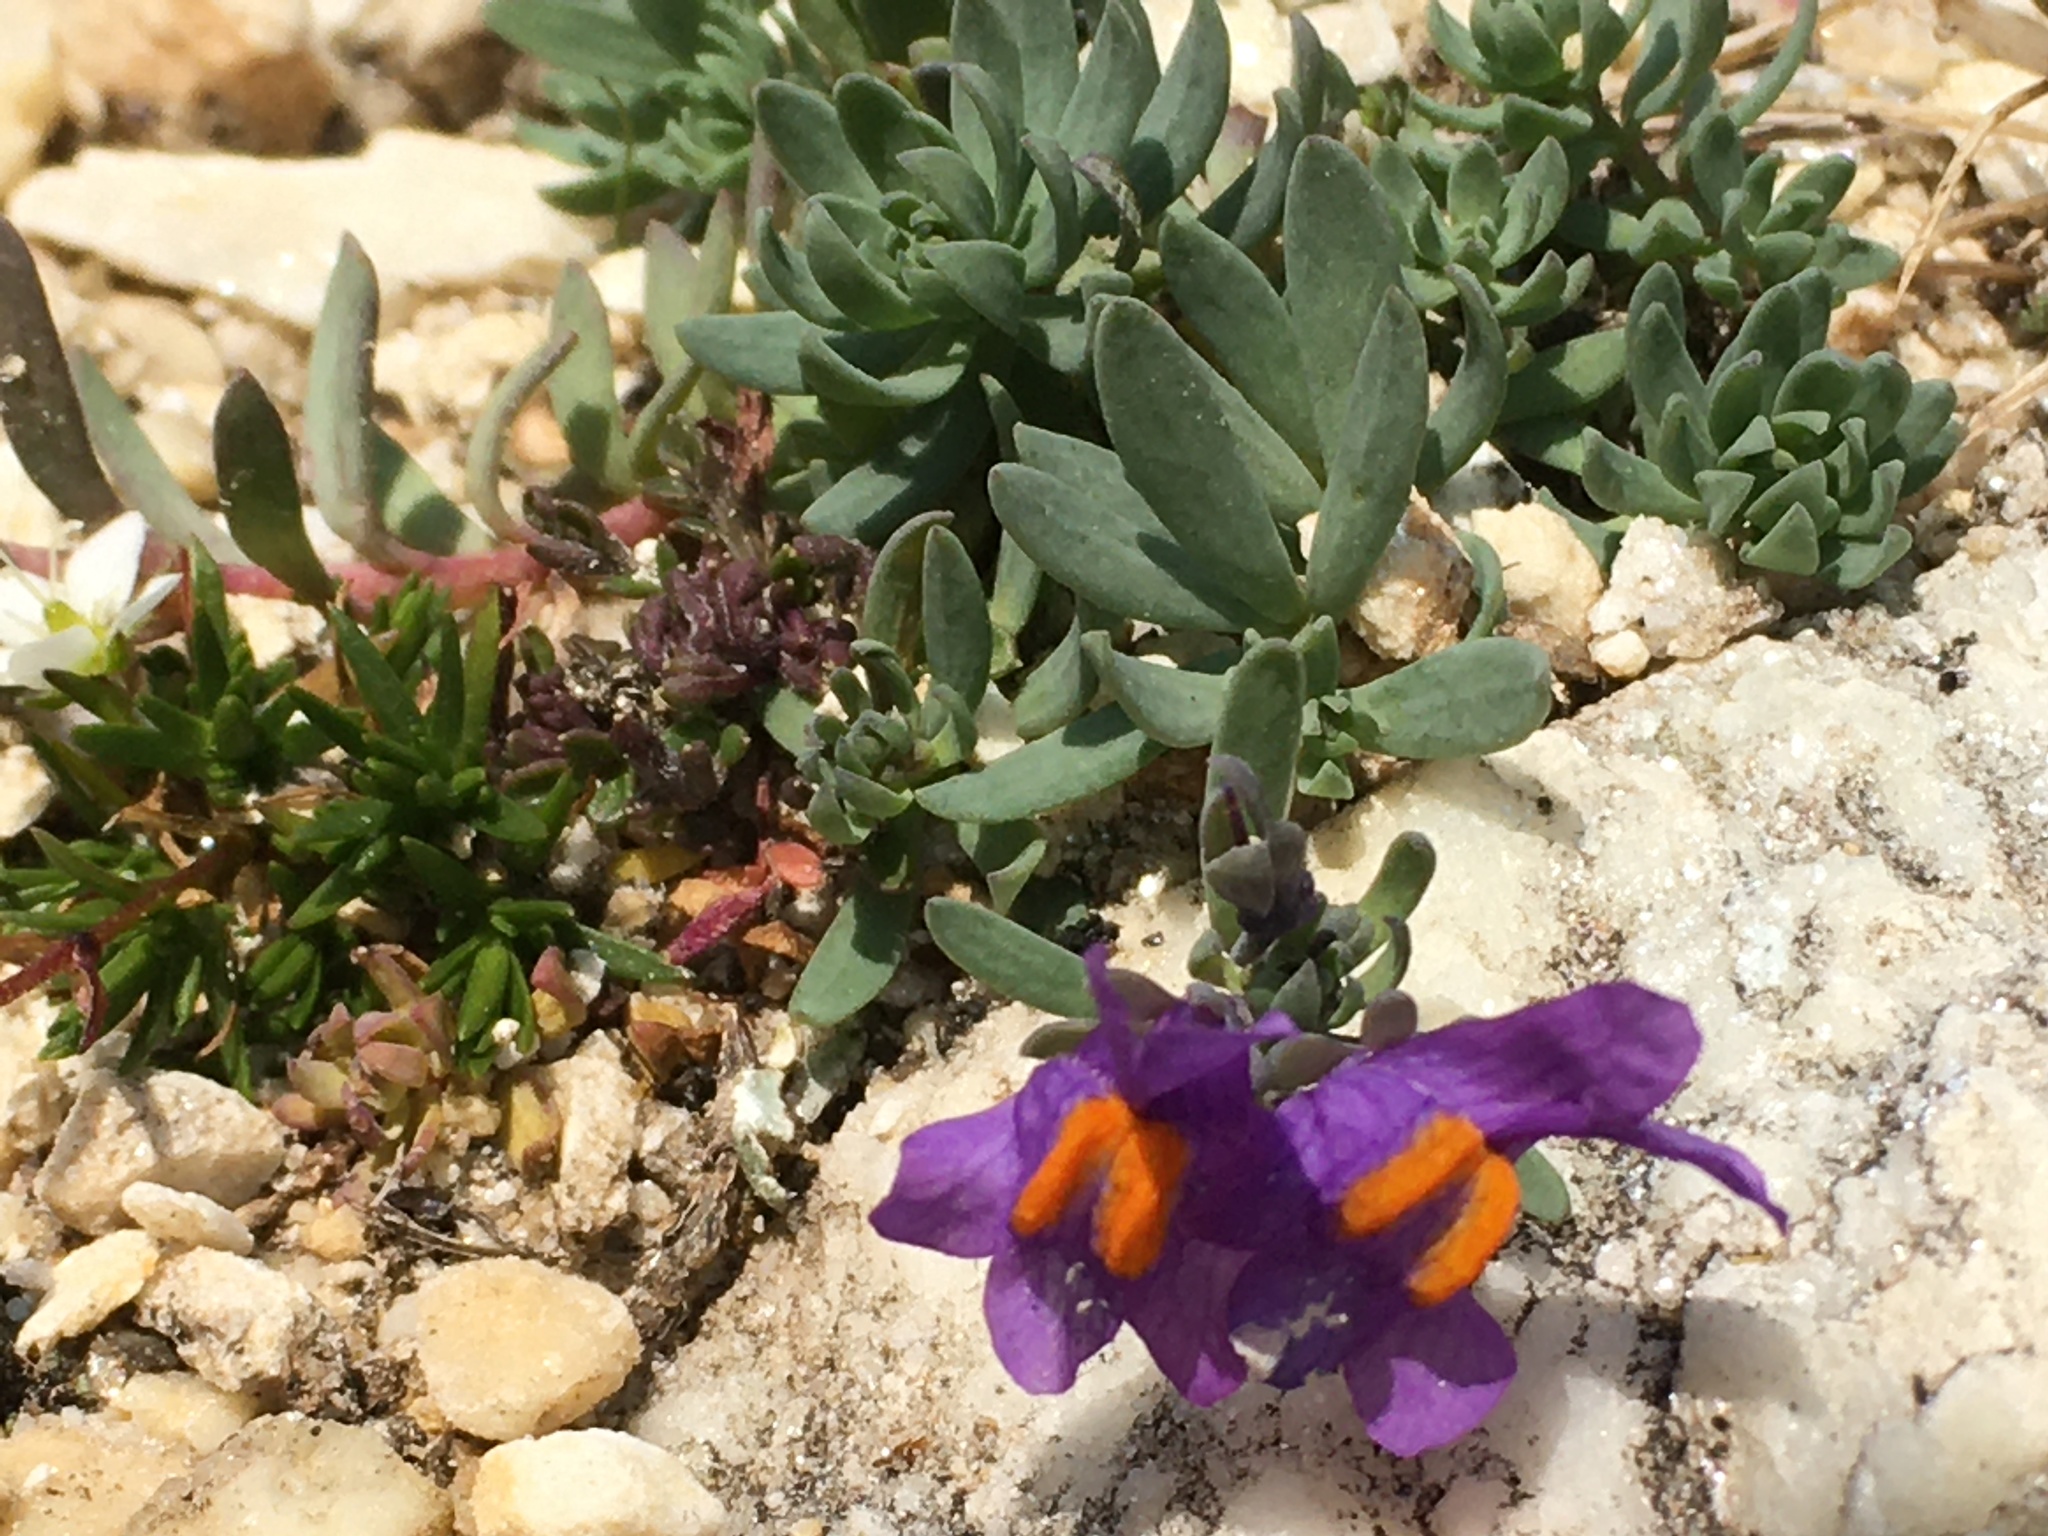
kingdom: Plantae
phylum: Tracheophyta
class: Magnoliopsida
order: Lamiales
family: Plantaginaceae
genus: Linaria
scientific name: Linaria alpina
